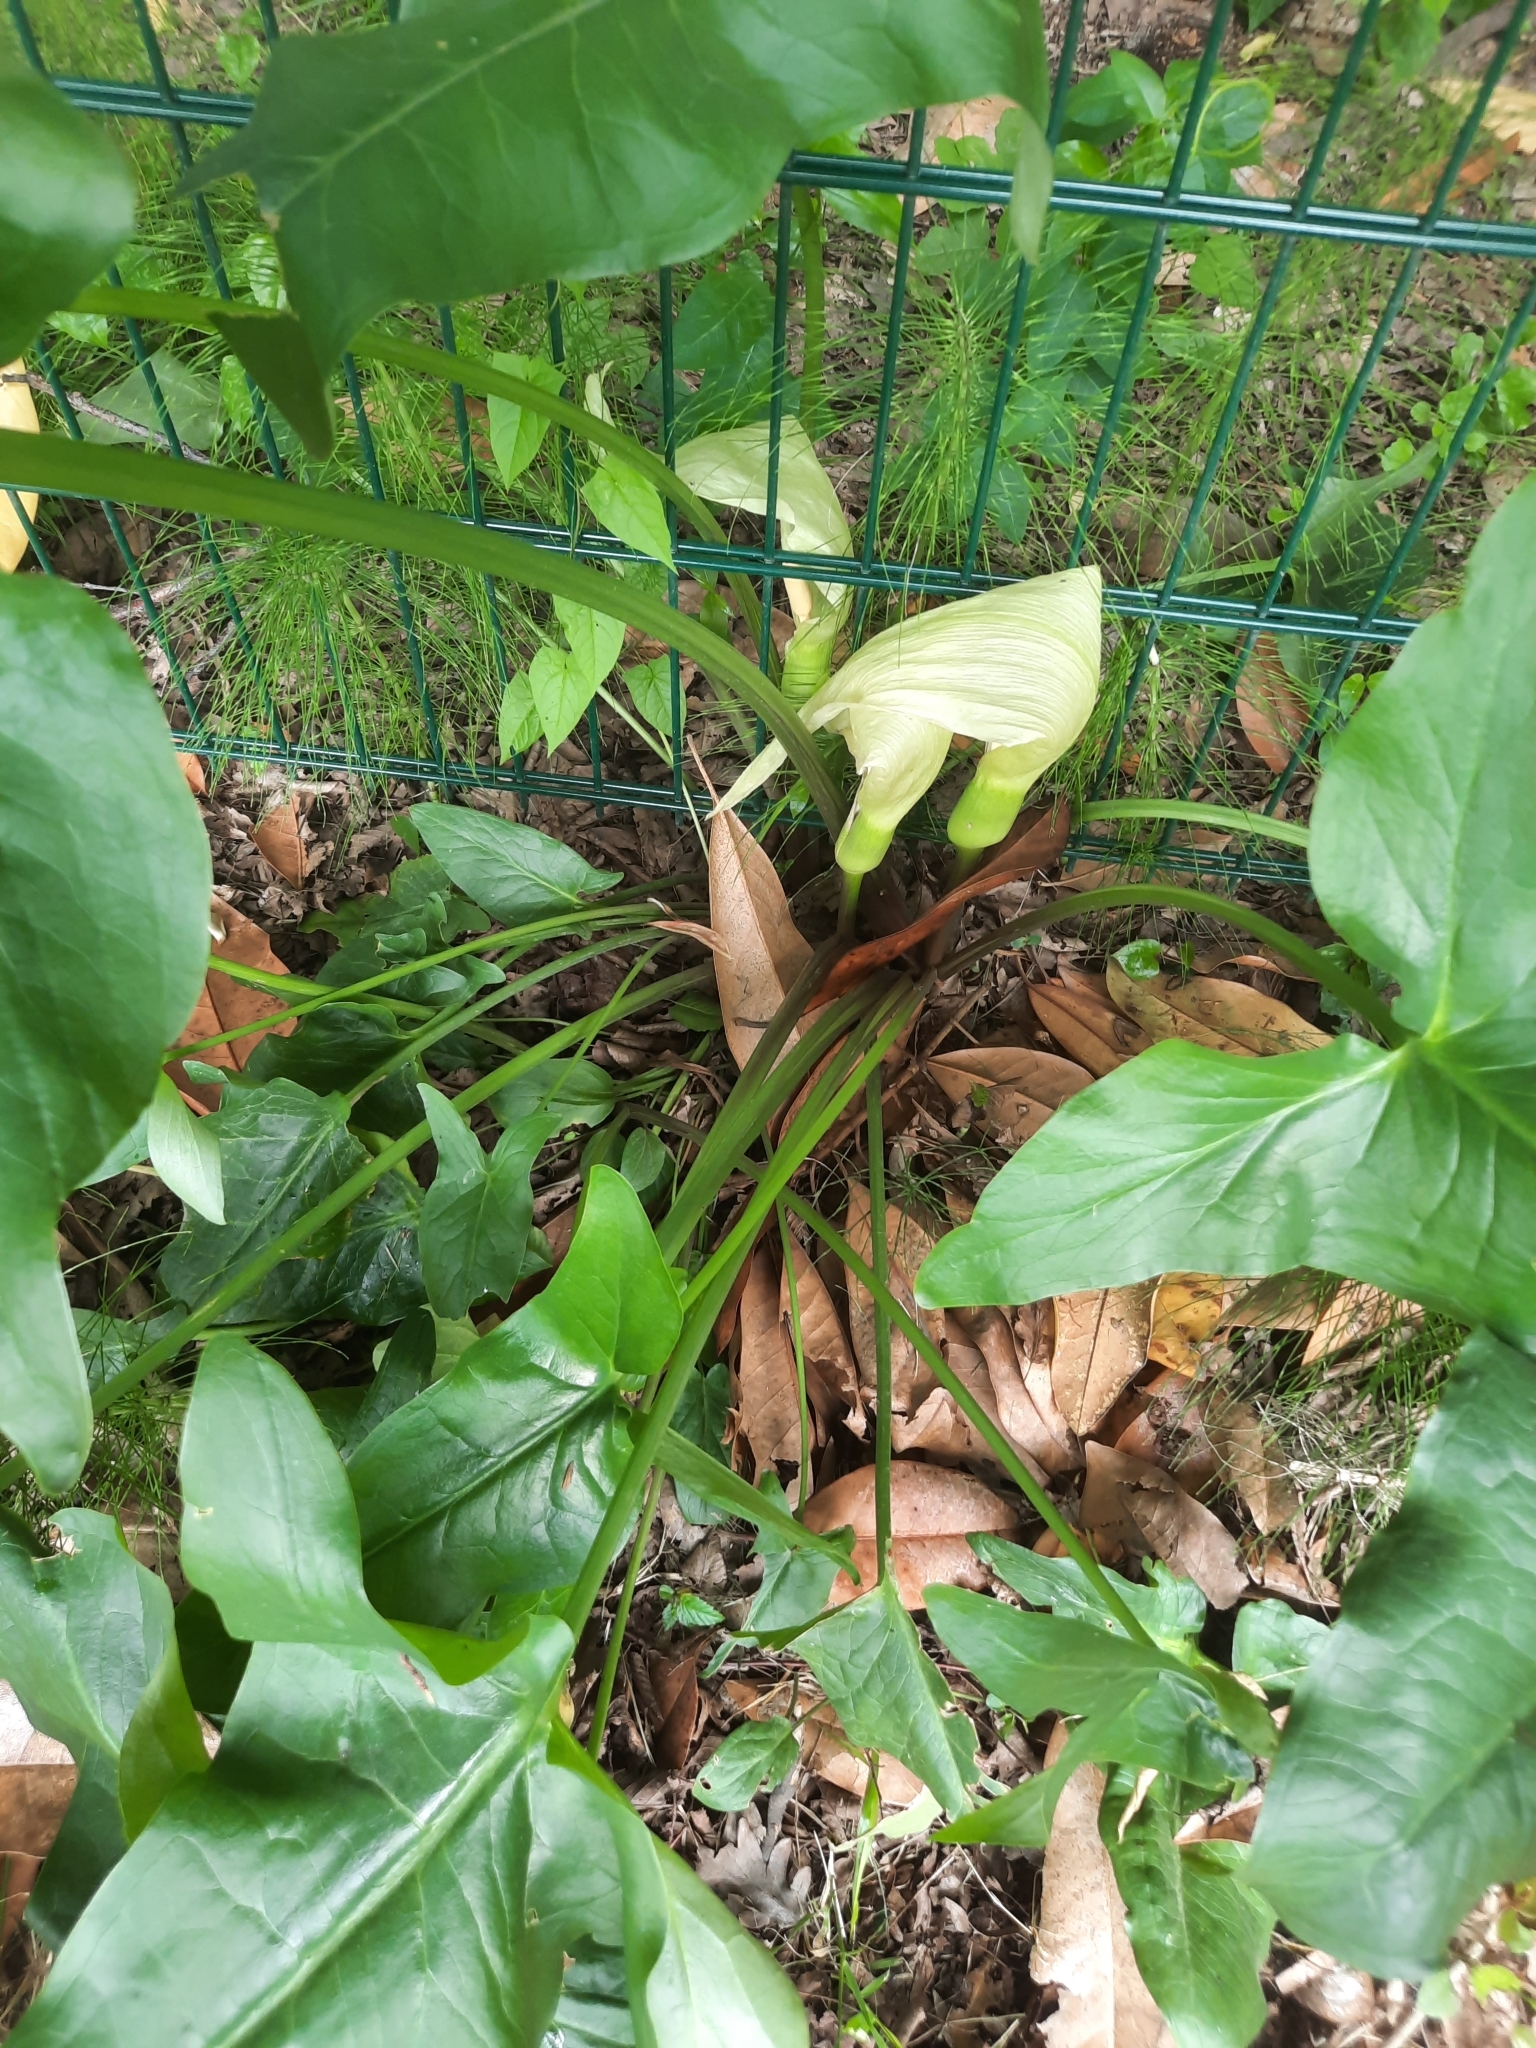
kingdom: Plantae
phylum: Tracheophyta
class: Liliopsida
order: Alismatales
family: Araceae
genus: Arum
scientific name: Arum italicum
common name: Italian lords-and-ladies
